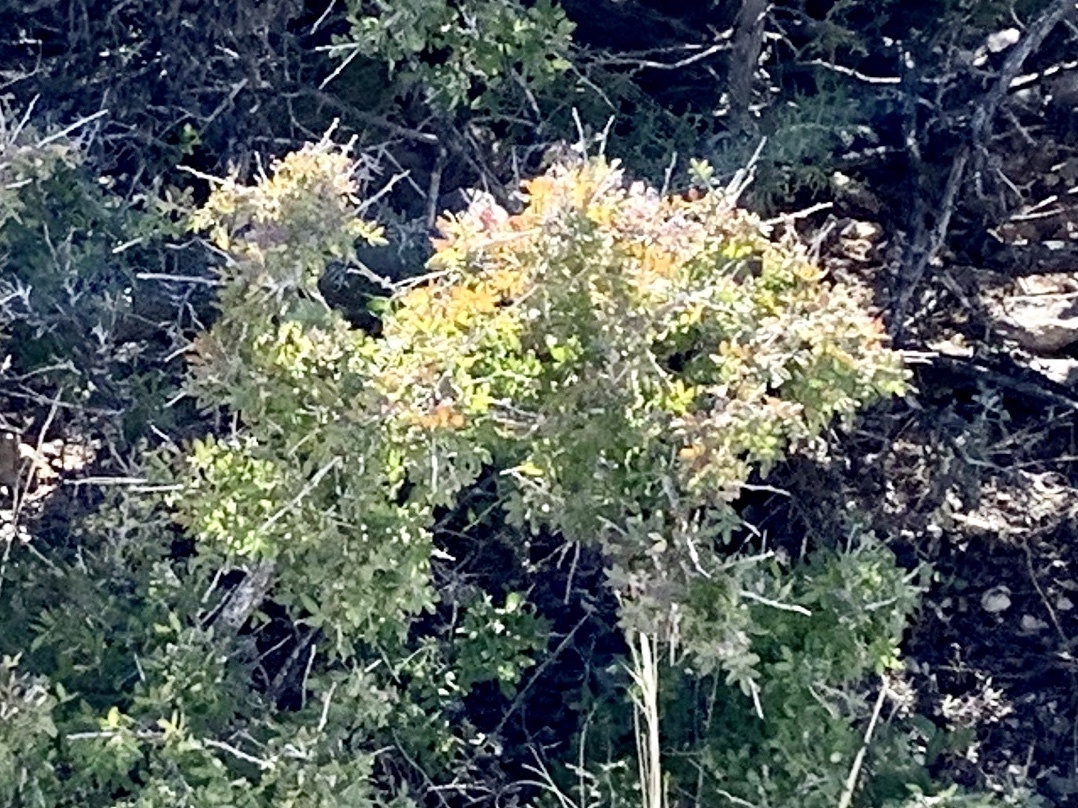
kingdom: Plantae
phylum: Tracheophyta
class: Magnoliopsida
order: Sapindales
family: Anacardiaceae
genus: Rhus
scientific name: Rhus microphylla
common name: Desert sumac
